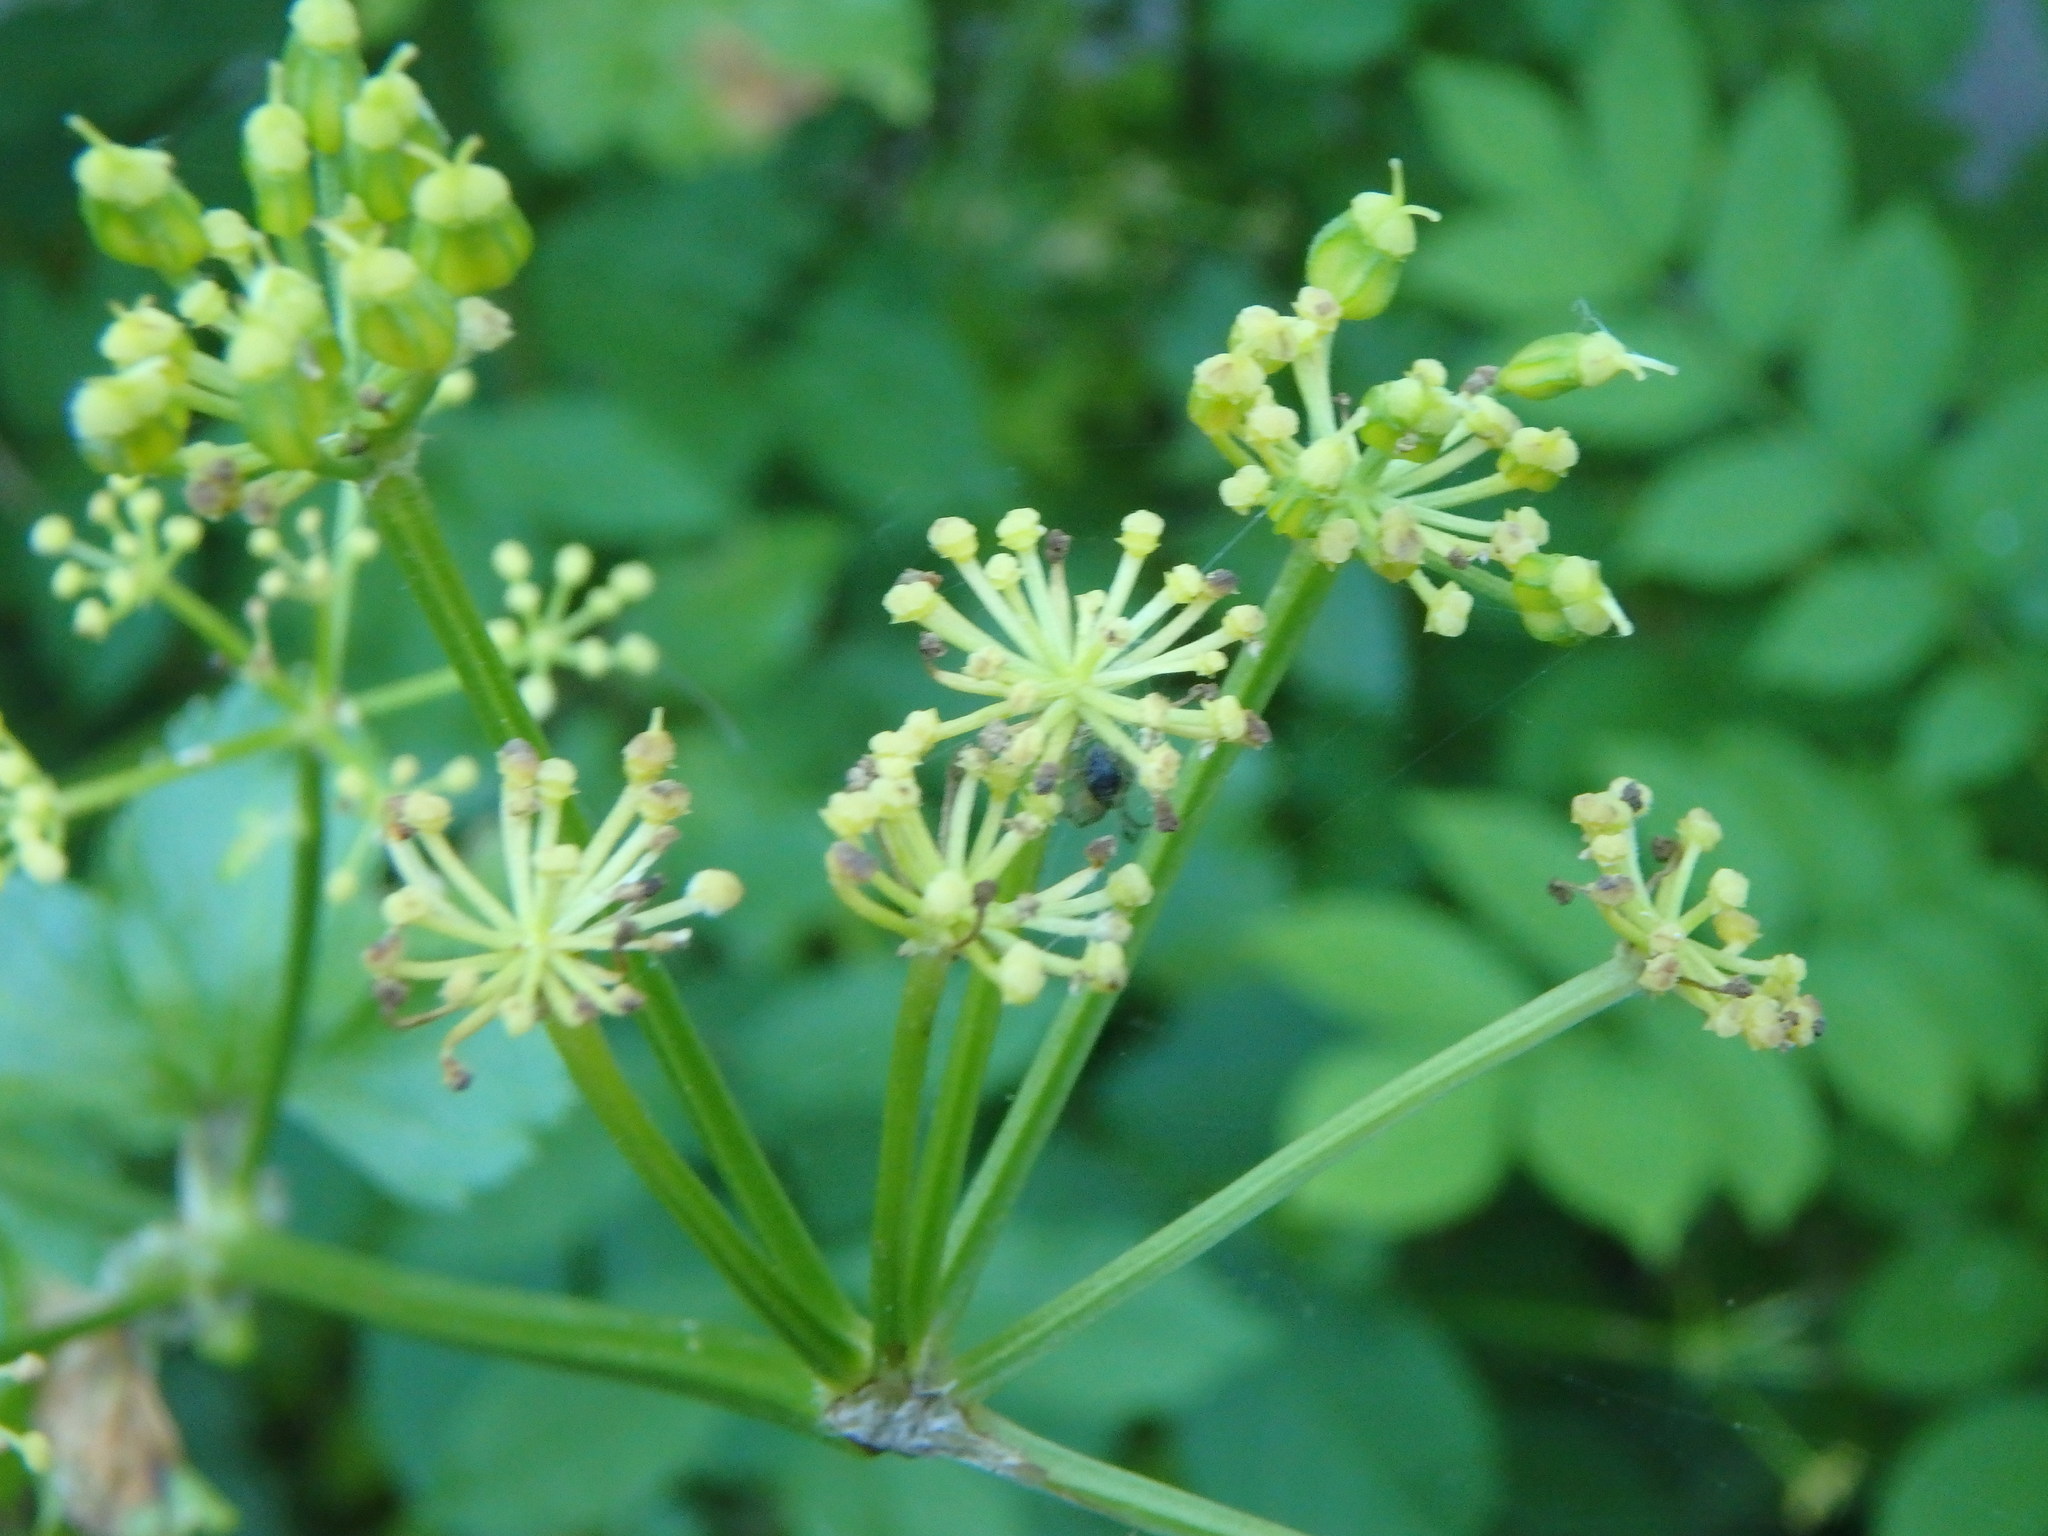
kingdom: Plantae
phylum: Tracheophyta
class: Magnoliopsida
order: Apiales
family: Apiaceae
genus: Smyrnium
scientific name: Smyrnium olusatrum
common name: Alexanders
